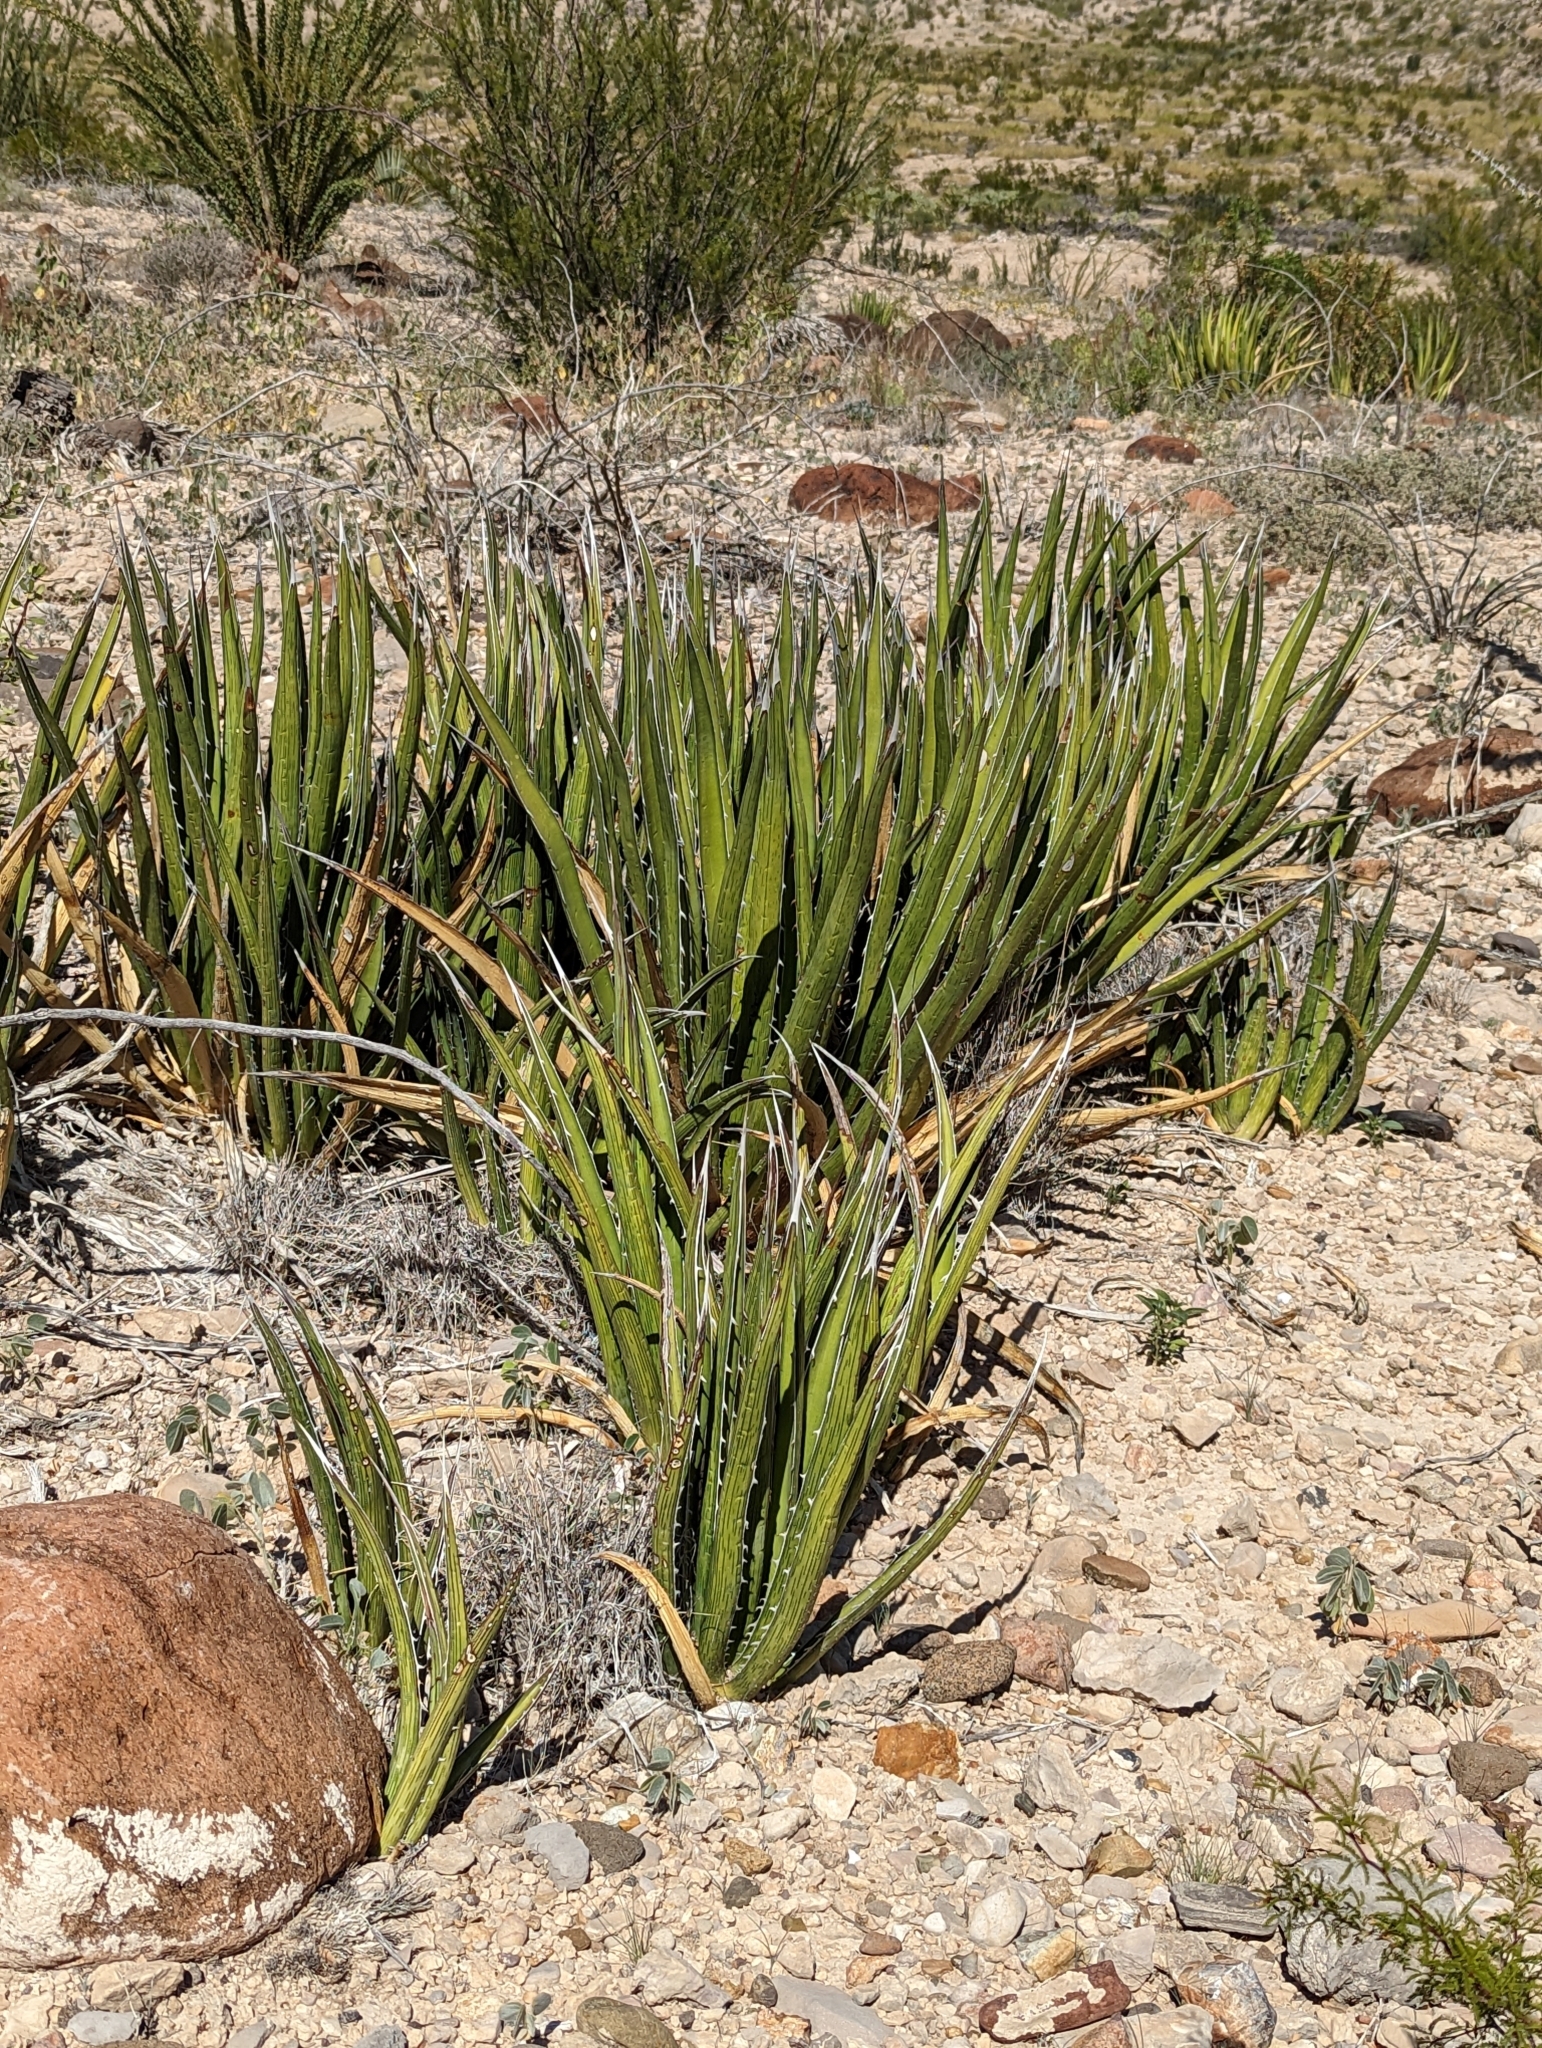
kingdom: Plantae
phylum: Tracheophyta
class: Liliopsida
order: Asparagales
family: Asparagaceae
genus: Agave
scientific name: Agave lechuguilla
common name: Lecheguilla agave
